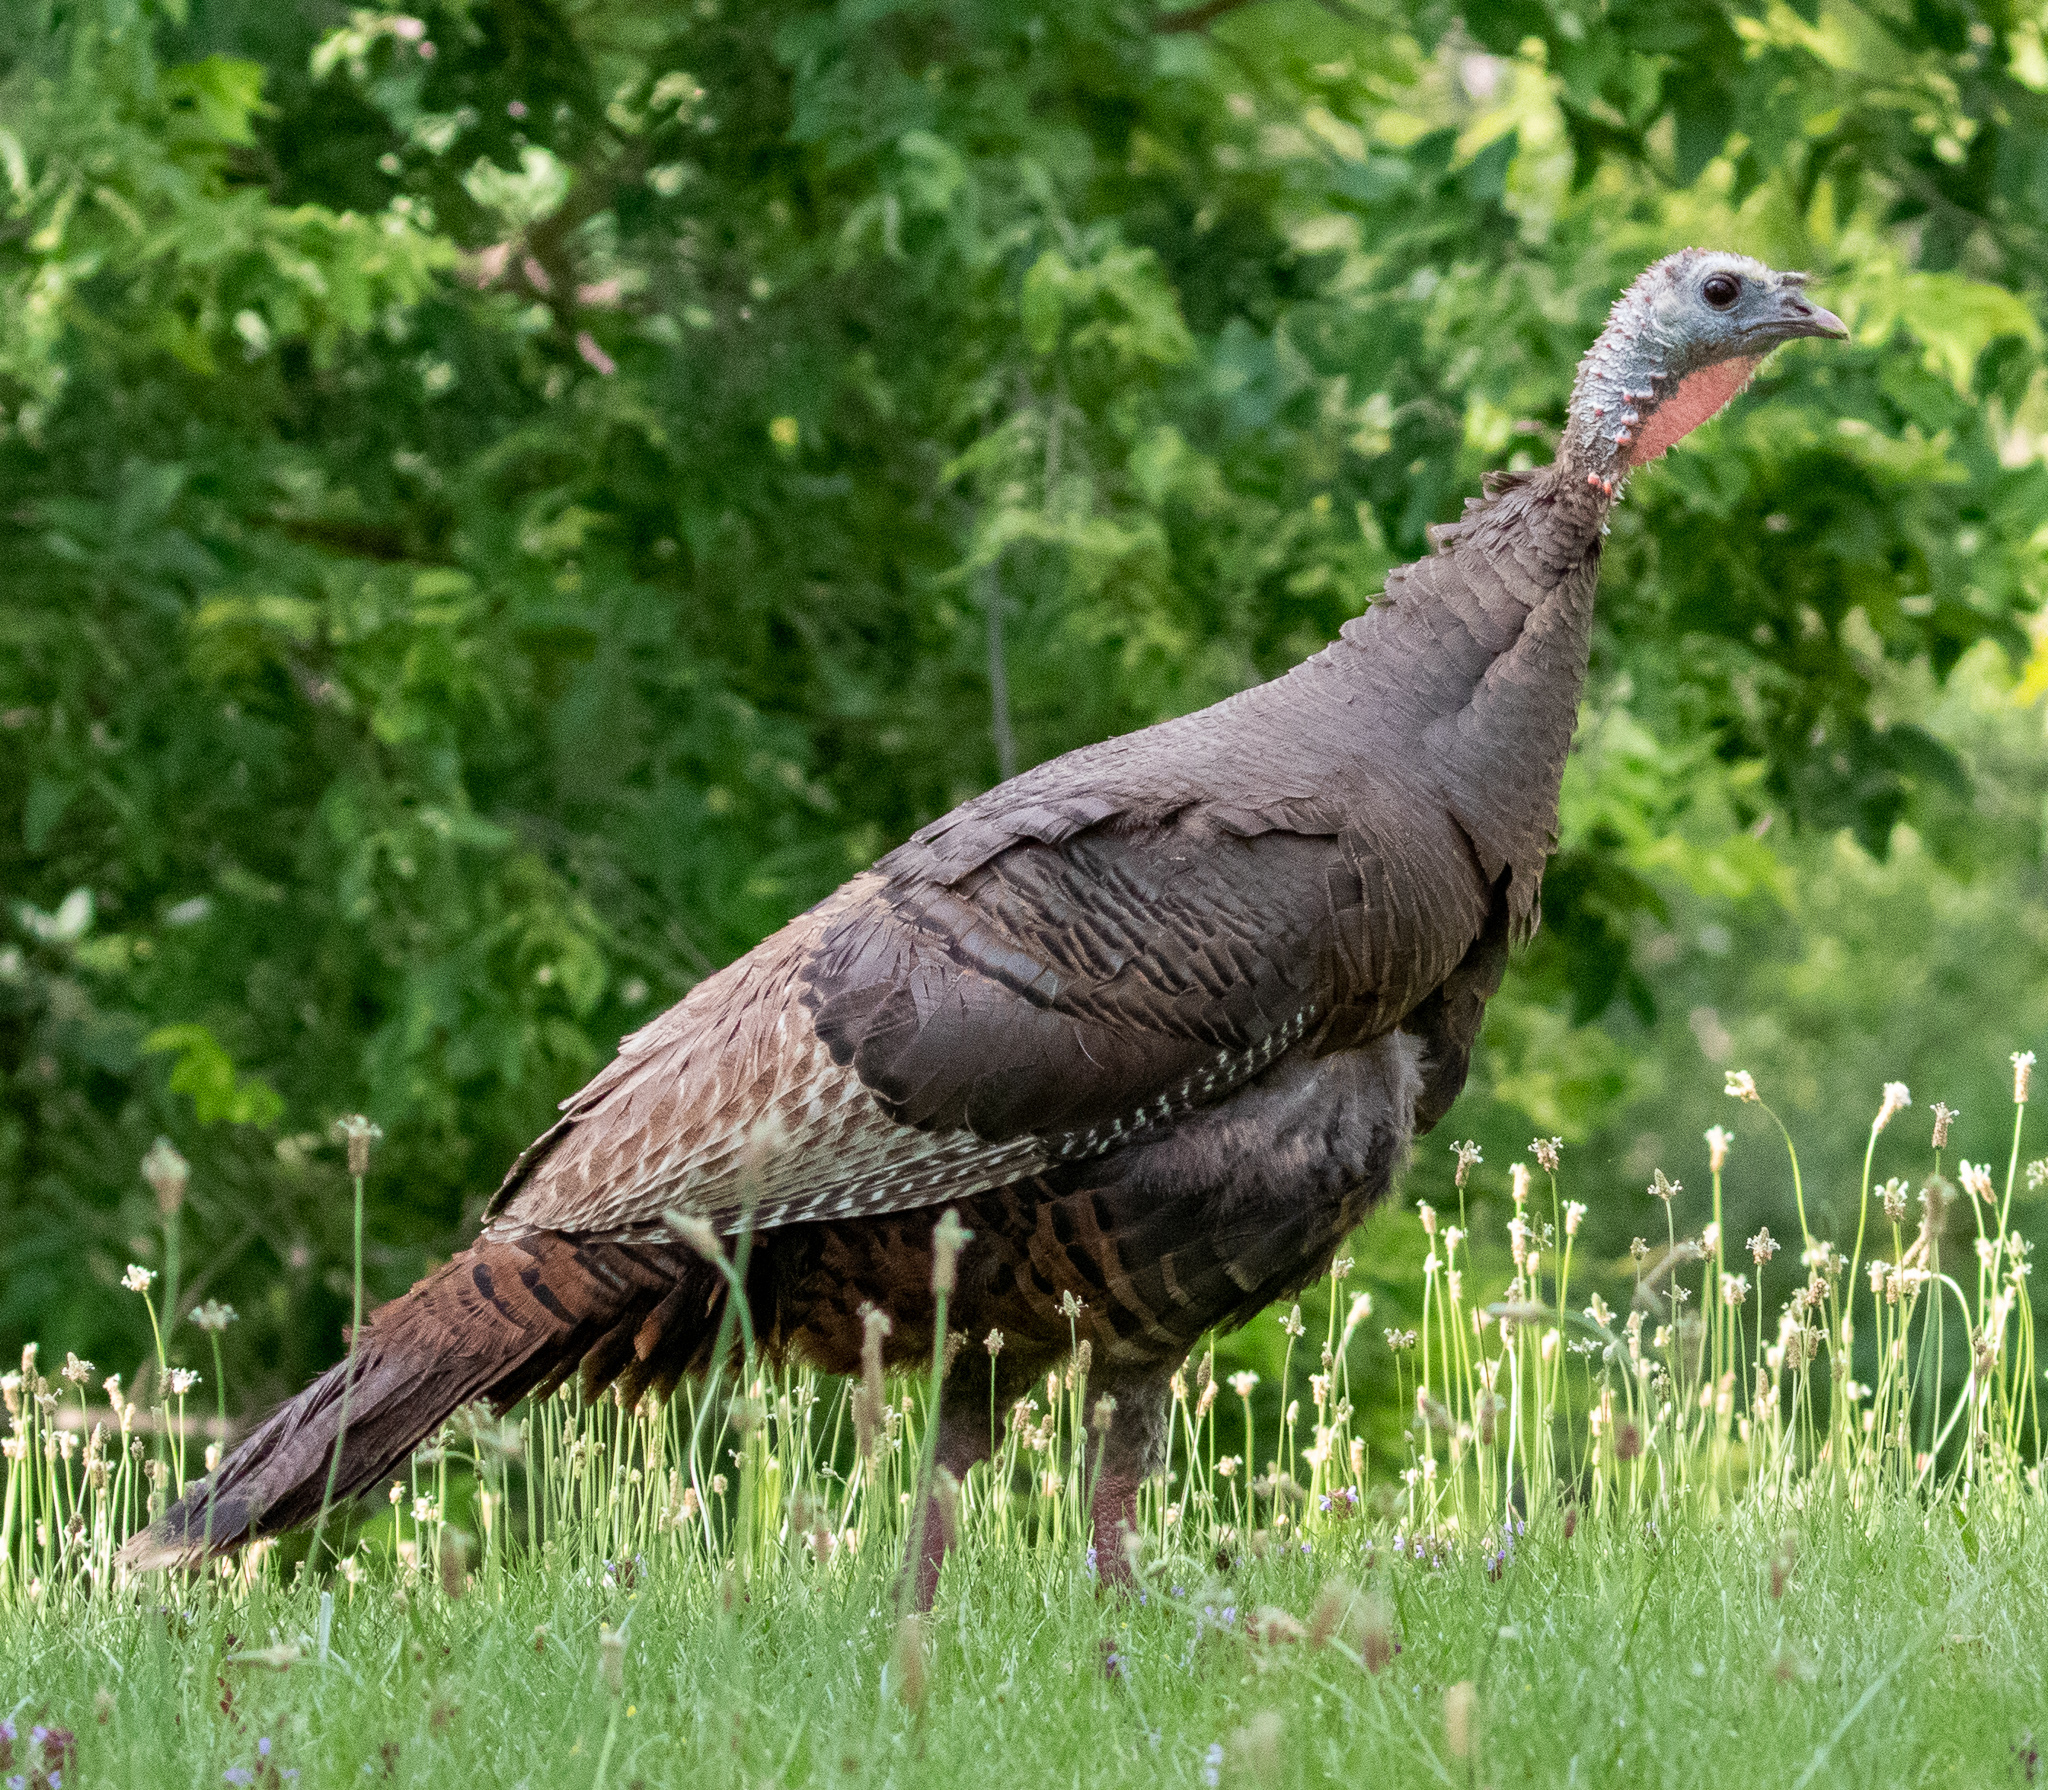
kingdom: Animalia
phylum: Chordata
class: Aves
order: Galliformes
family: Phasianidae
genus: Meleagris
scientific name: Meleagris gallopavo
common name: Wild turkey
